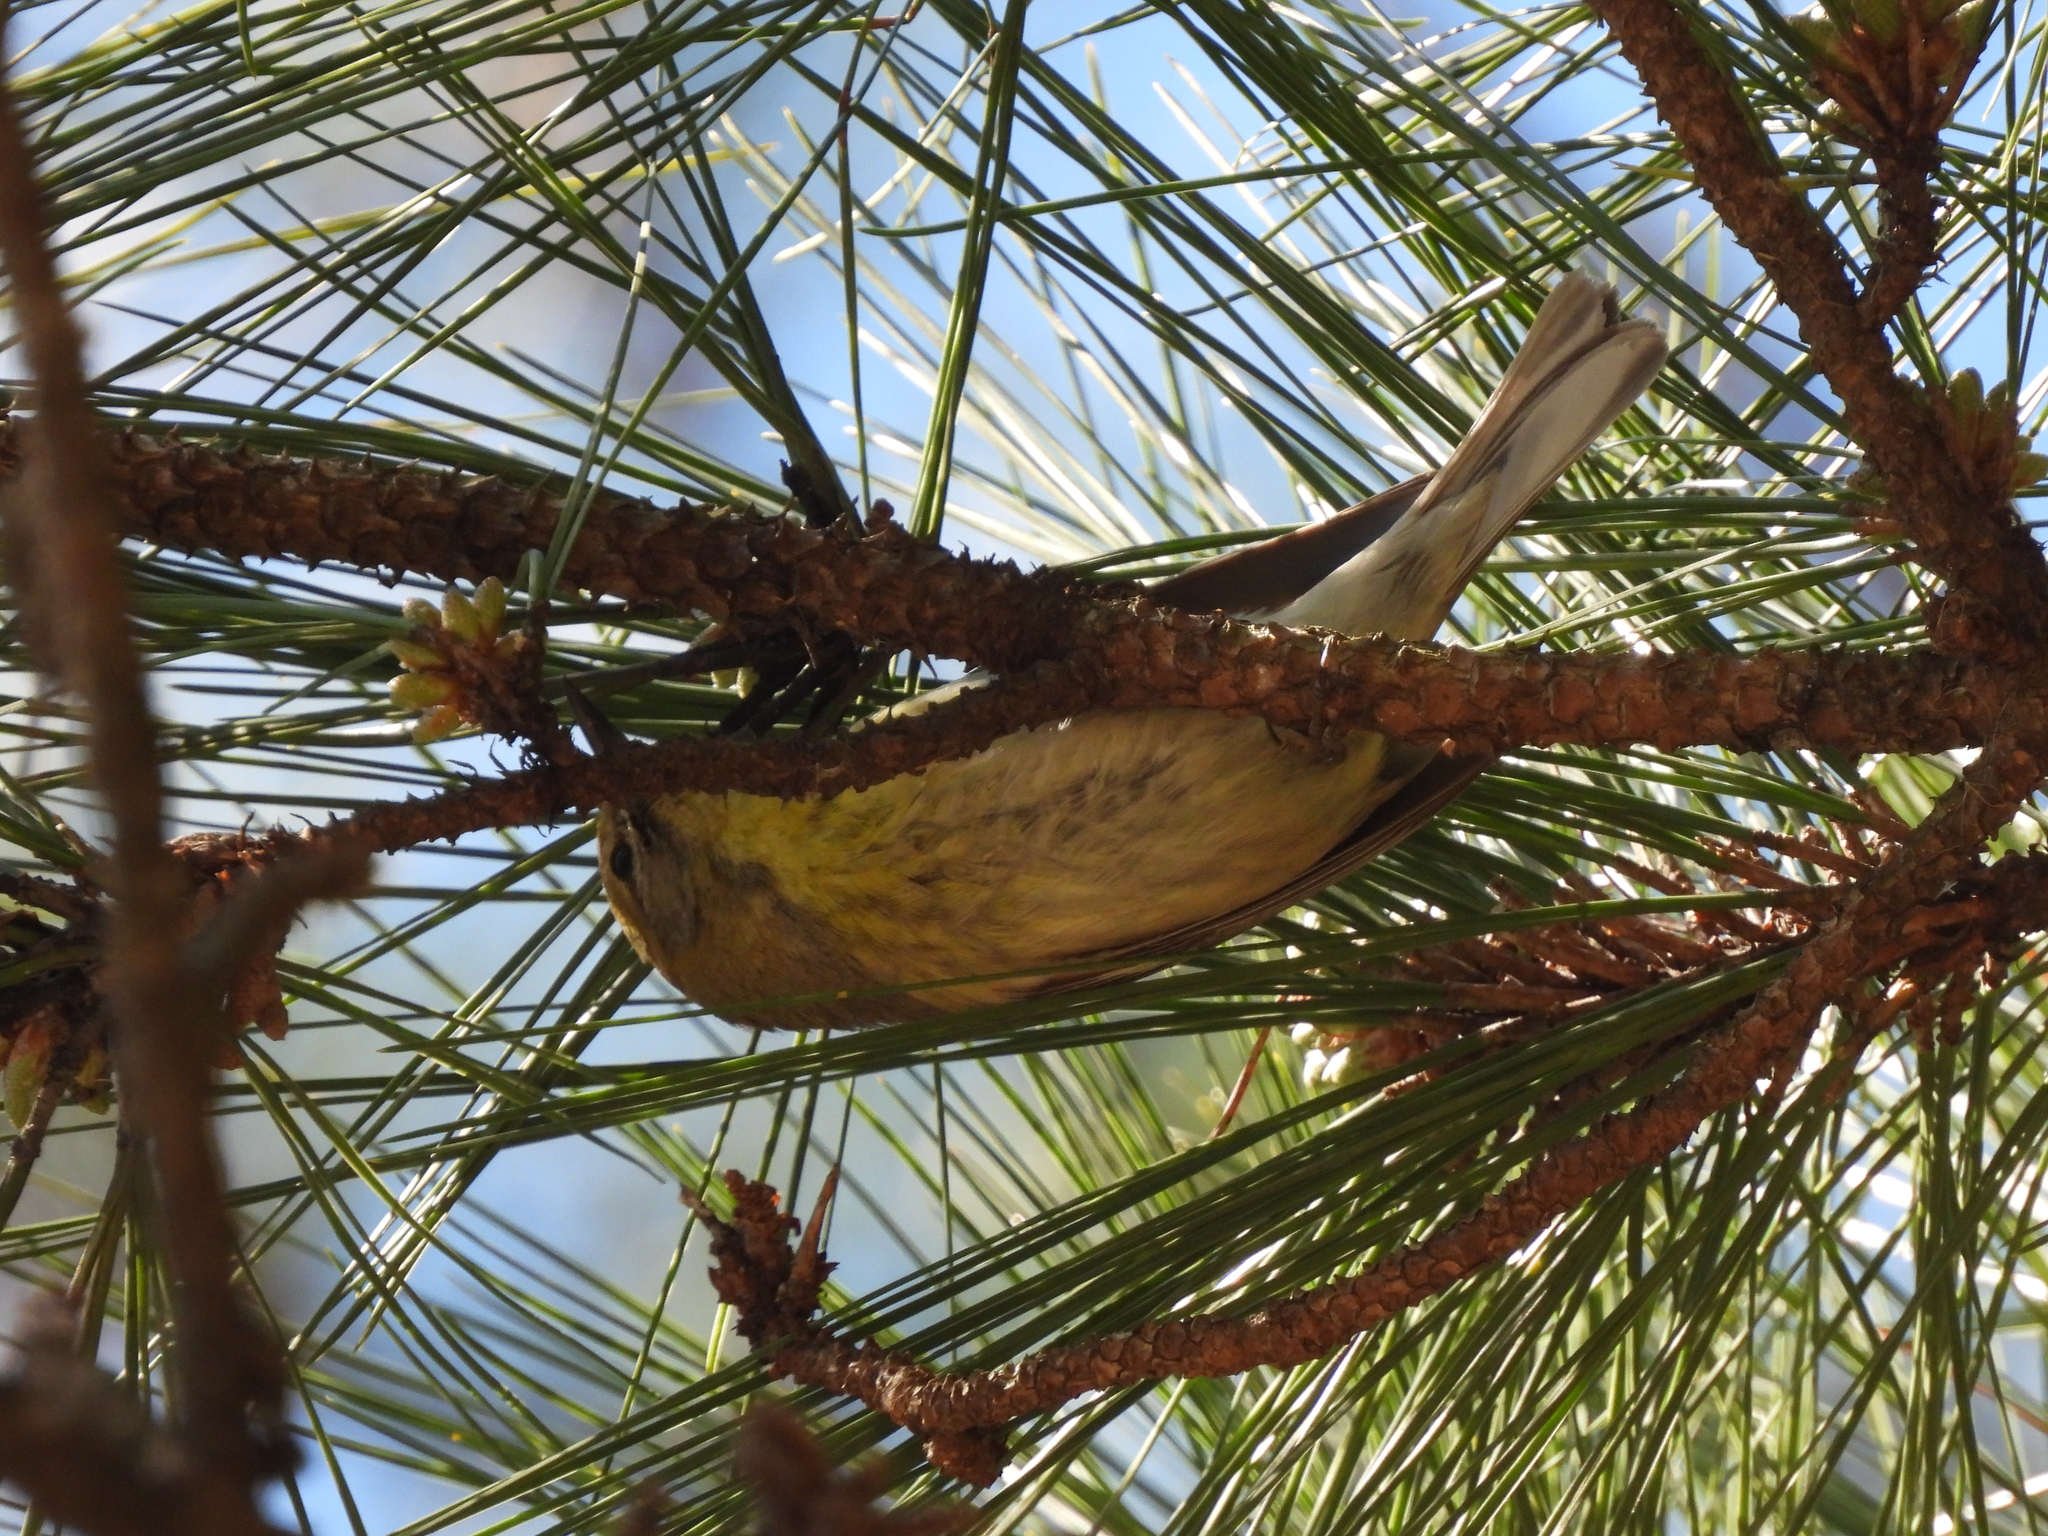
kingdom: Animalia
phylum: Chordata
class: Aves
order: Passeriformes
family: Parulidae
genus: Setophaga
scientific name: Setophaga pinus
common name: Pine warbler
